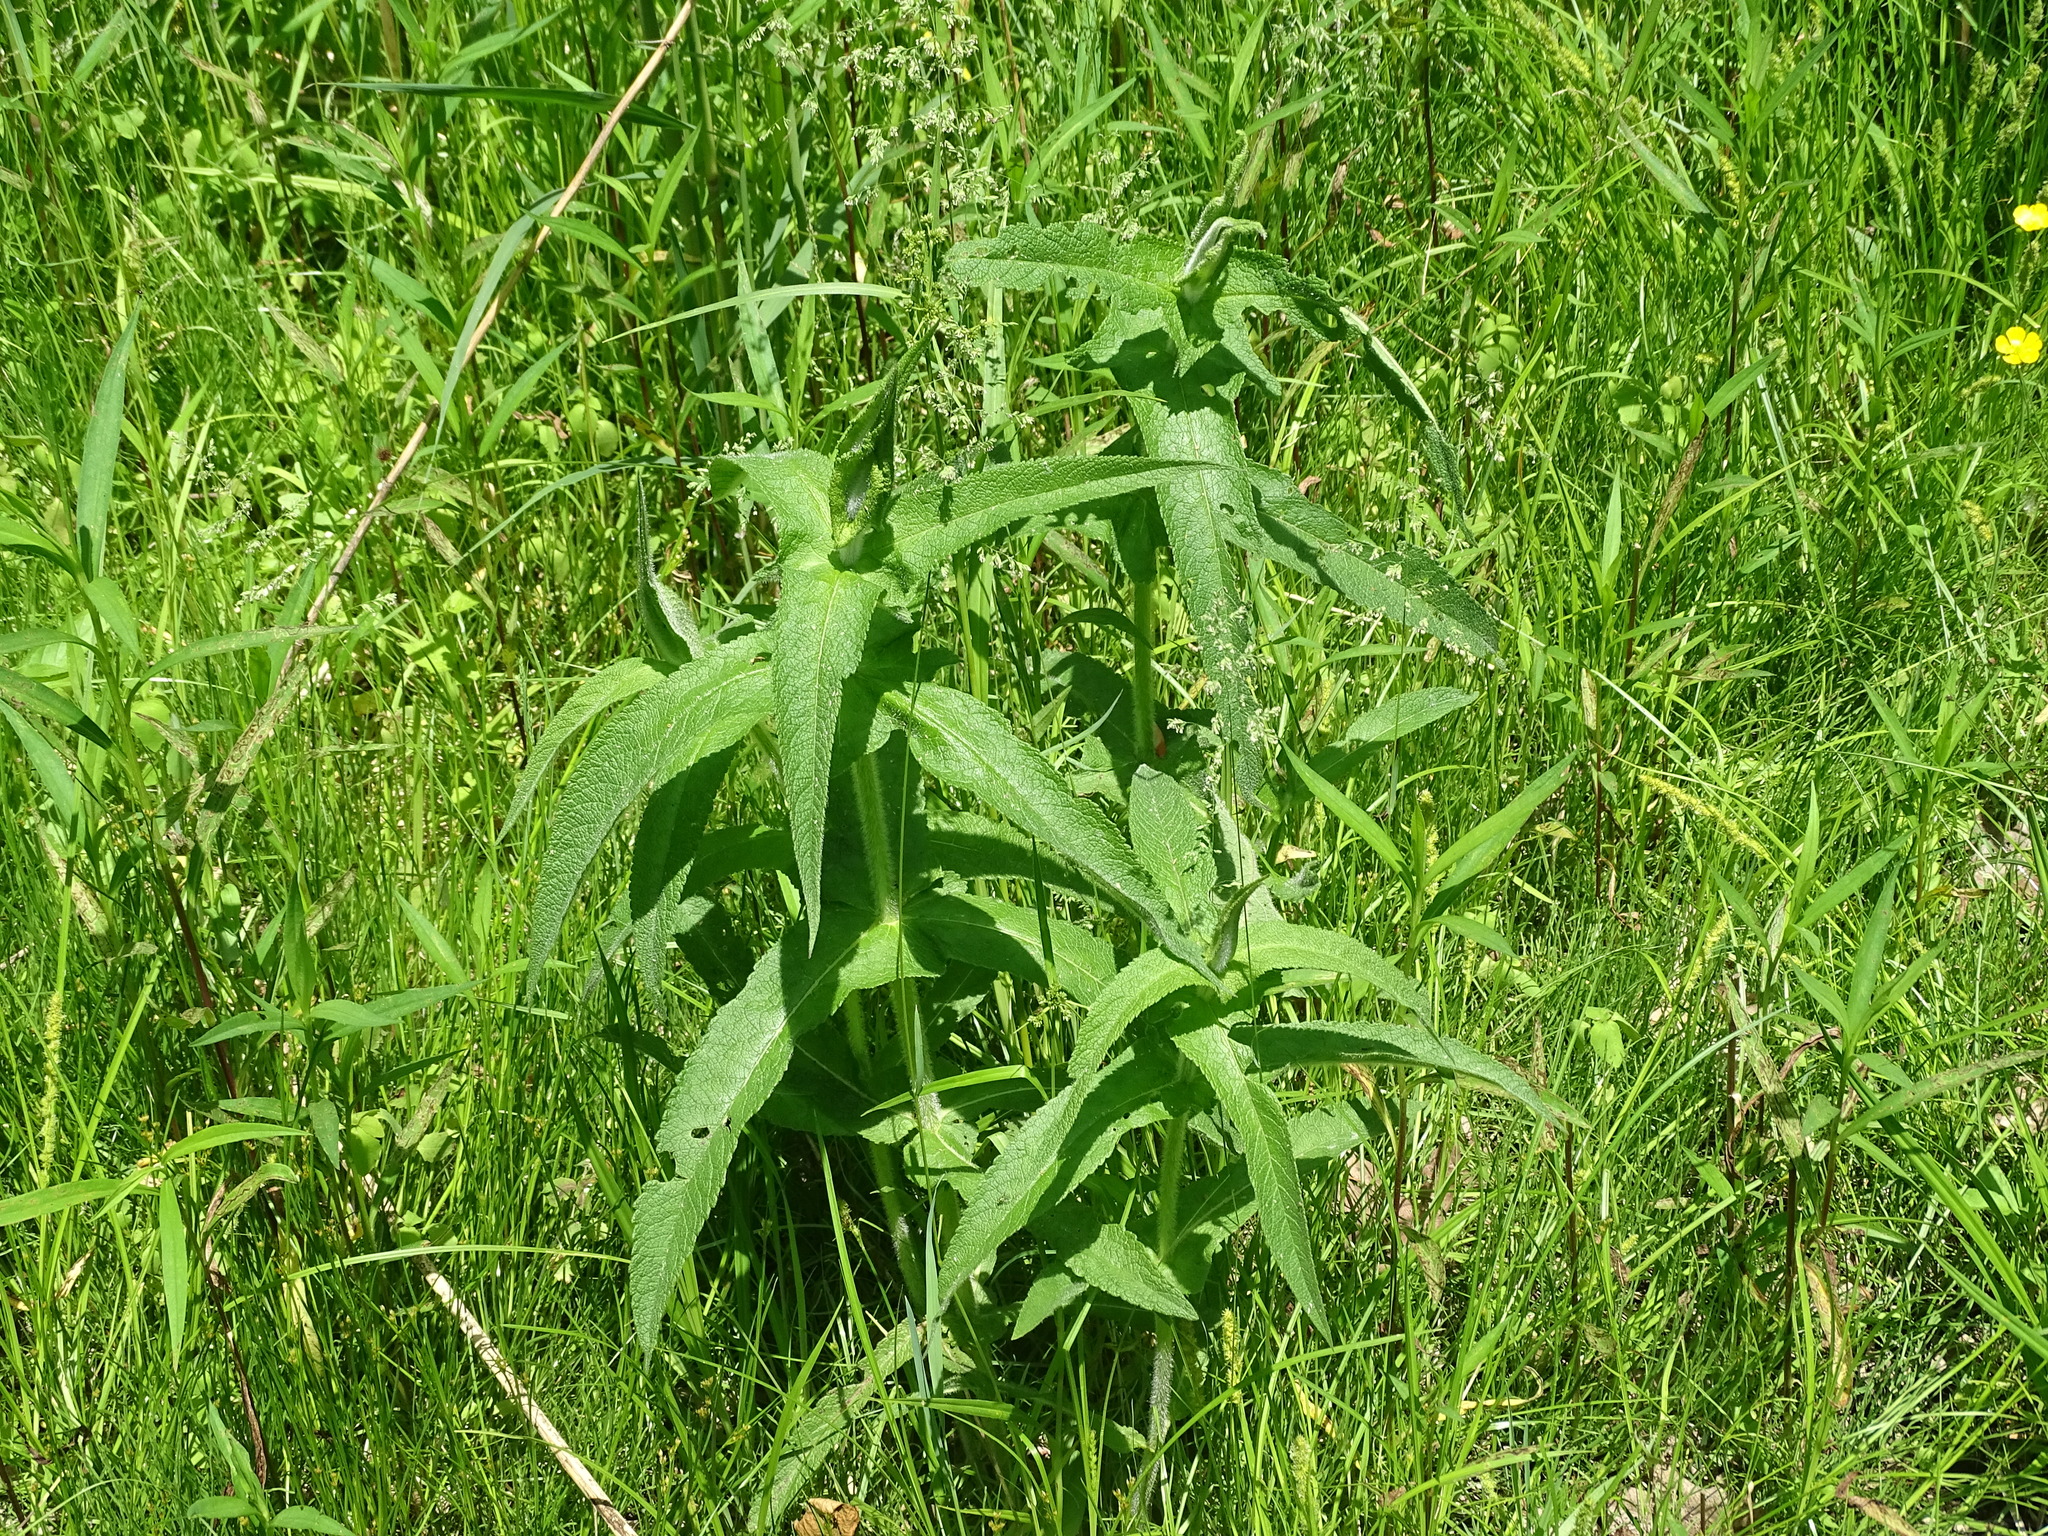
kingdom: Plantae
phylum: Tracheophyta
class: Magnoliopsida
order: Asterales
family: Asteraceae
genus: Eupatorium
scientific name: Eupatorium perfoliatum
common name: Boneset
